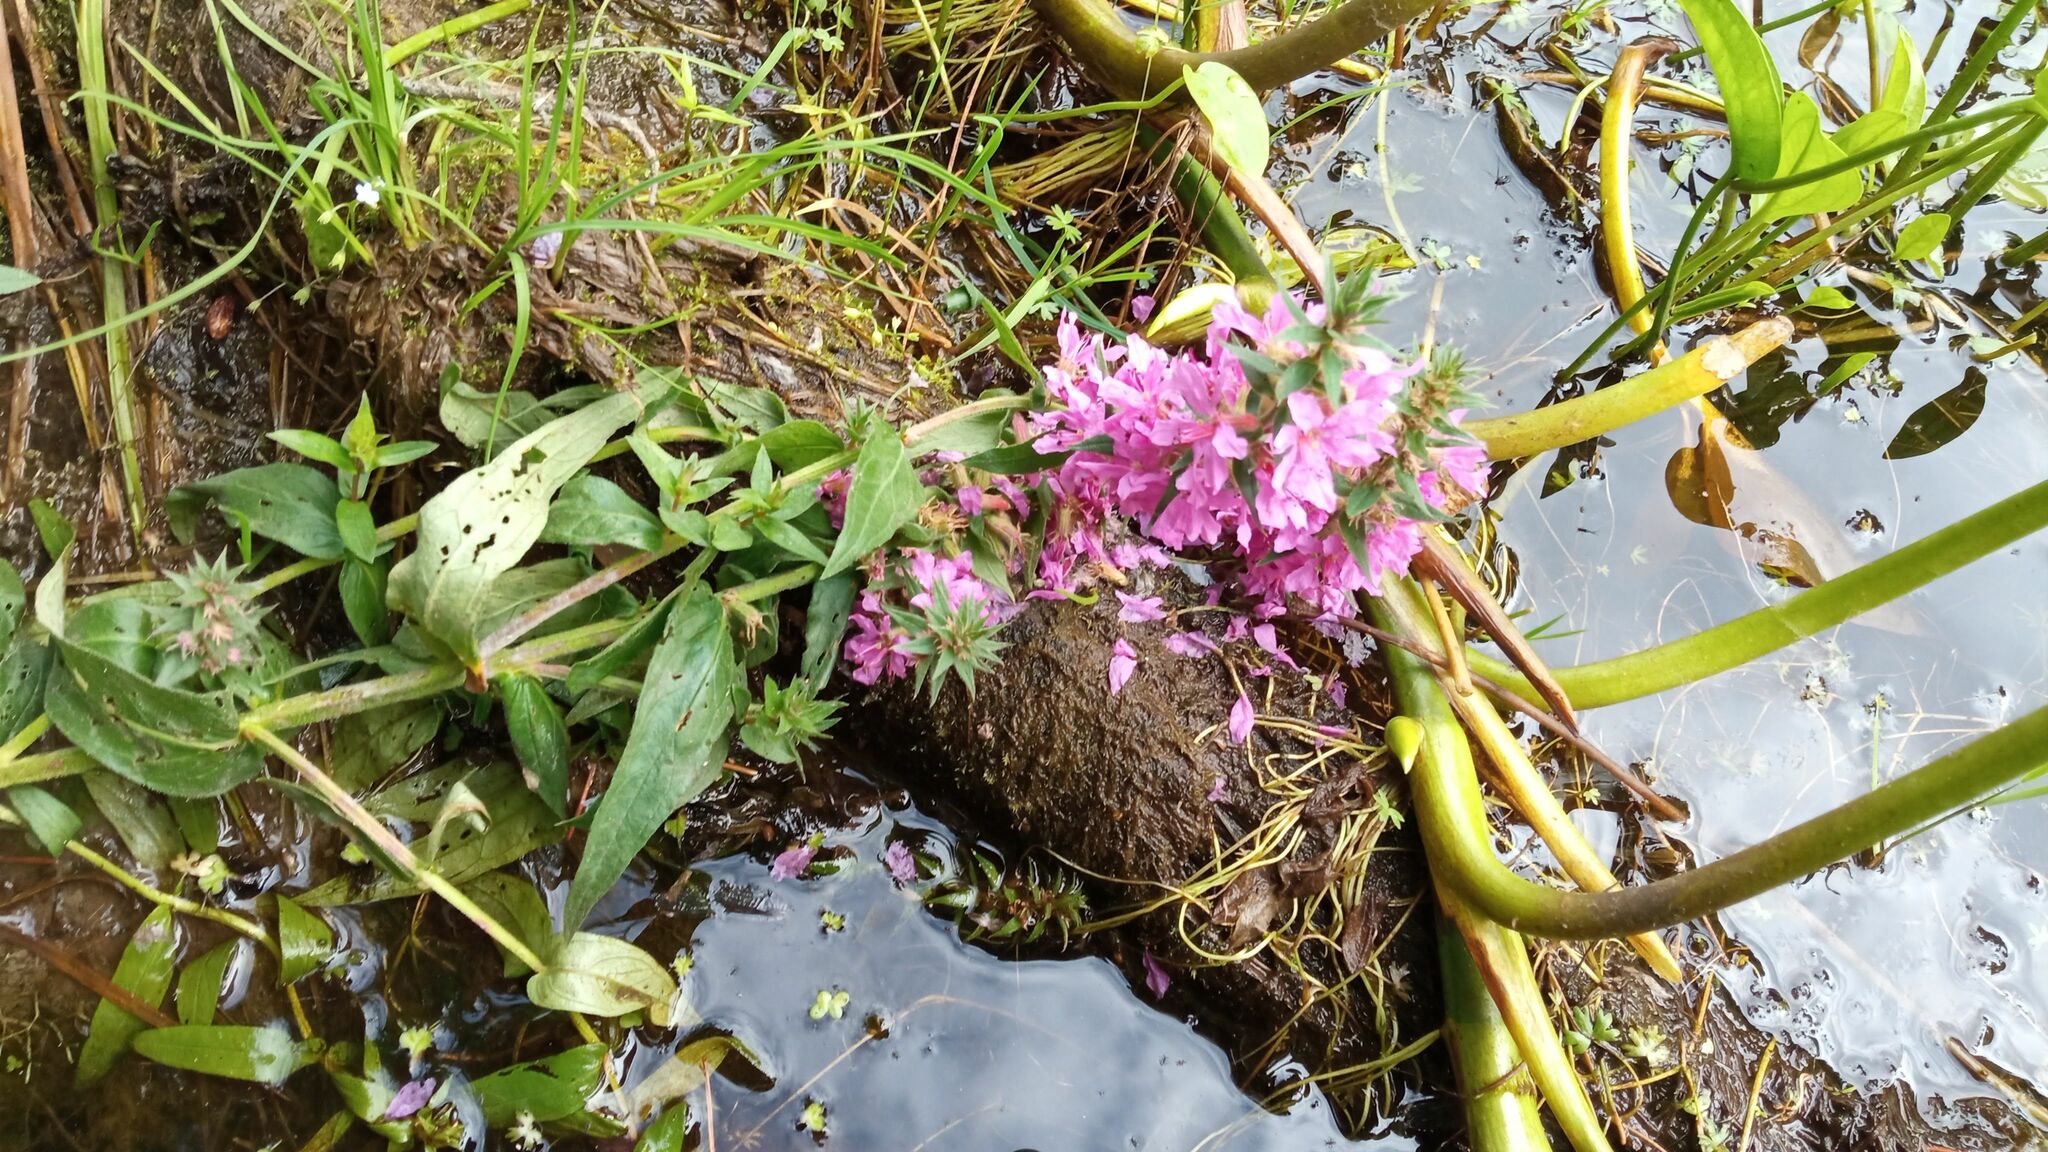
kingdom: Plantae
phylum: Tracheophyta
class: Magnoliopsida
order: Myrtales
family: Lythraceae
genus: Lythrum
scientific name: Lythrum salicaria
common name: Purple loosestrife
